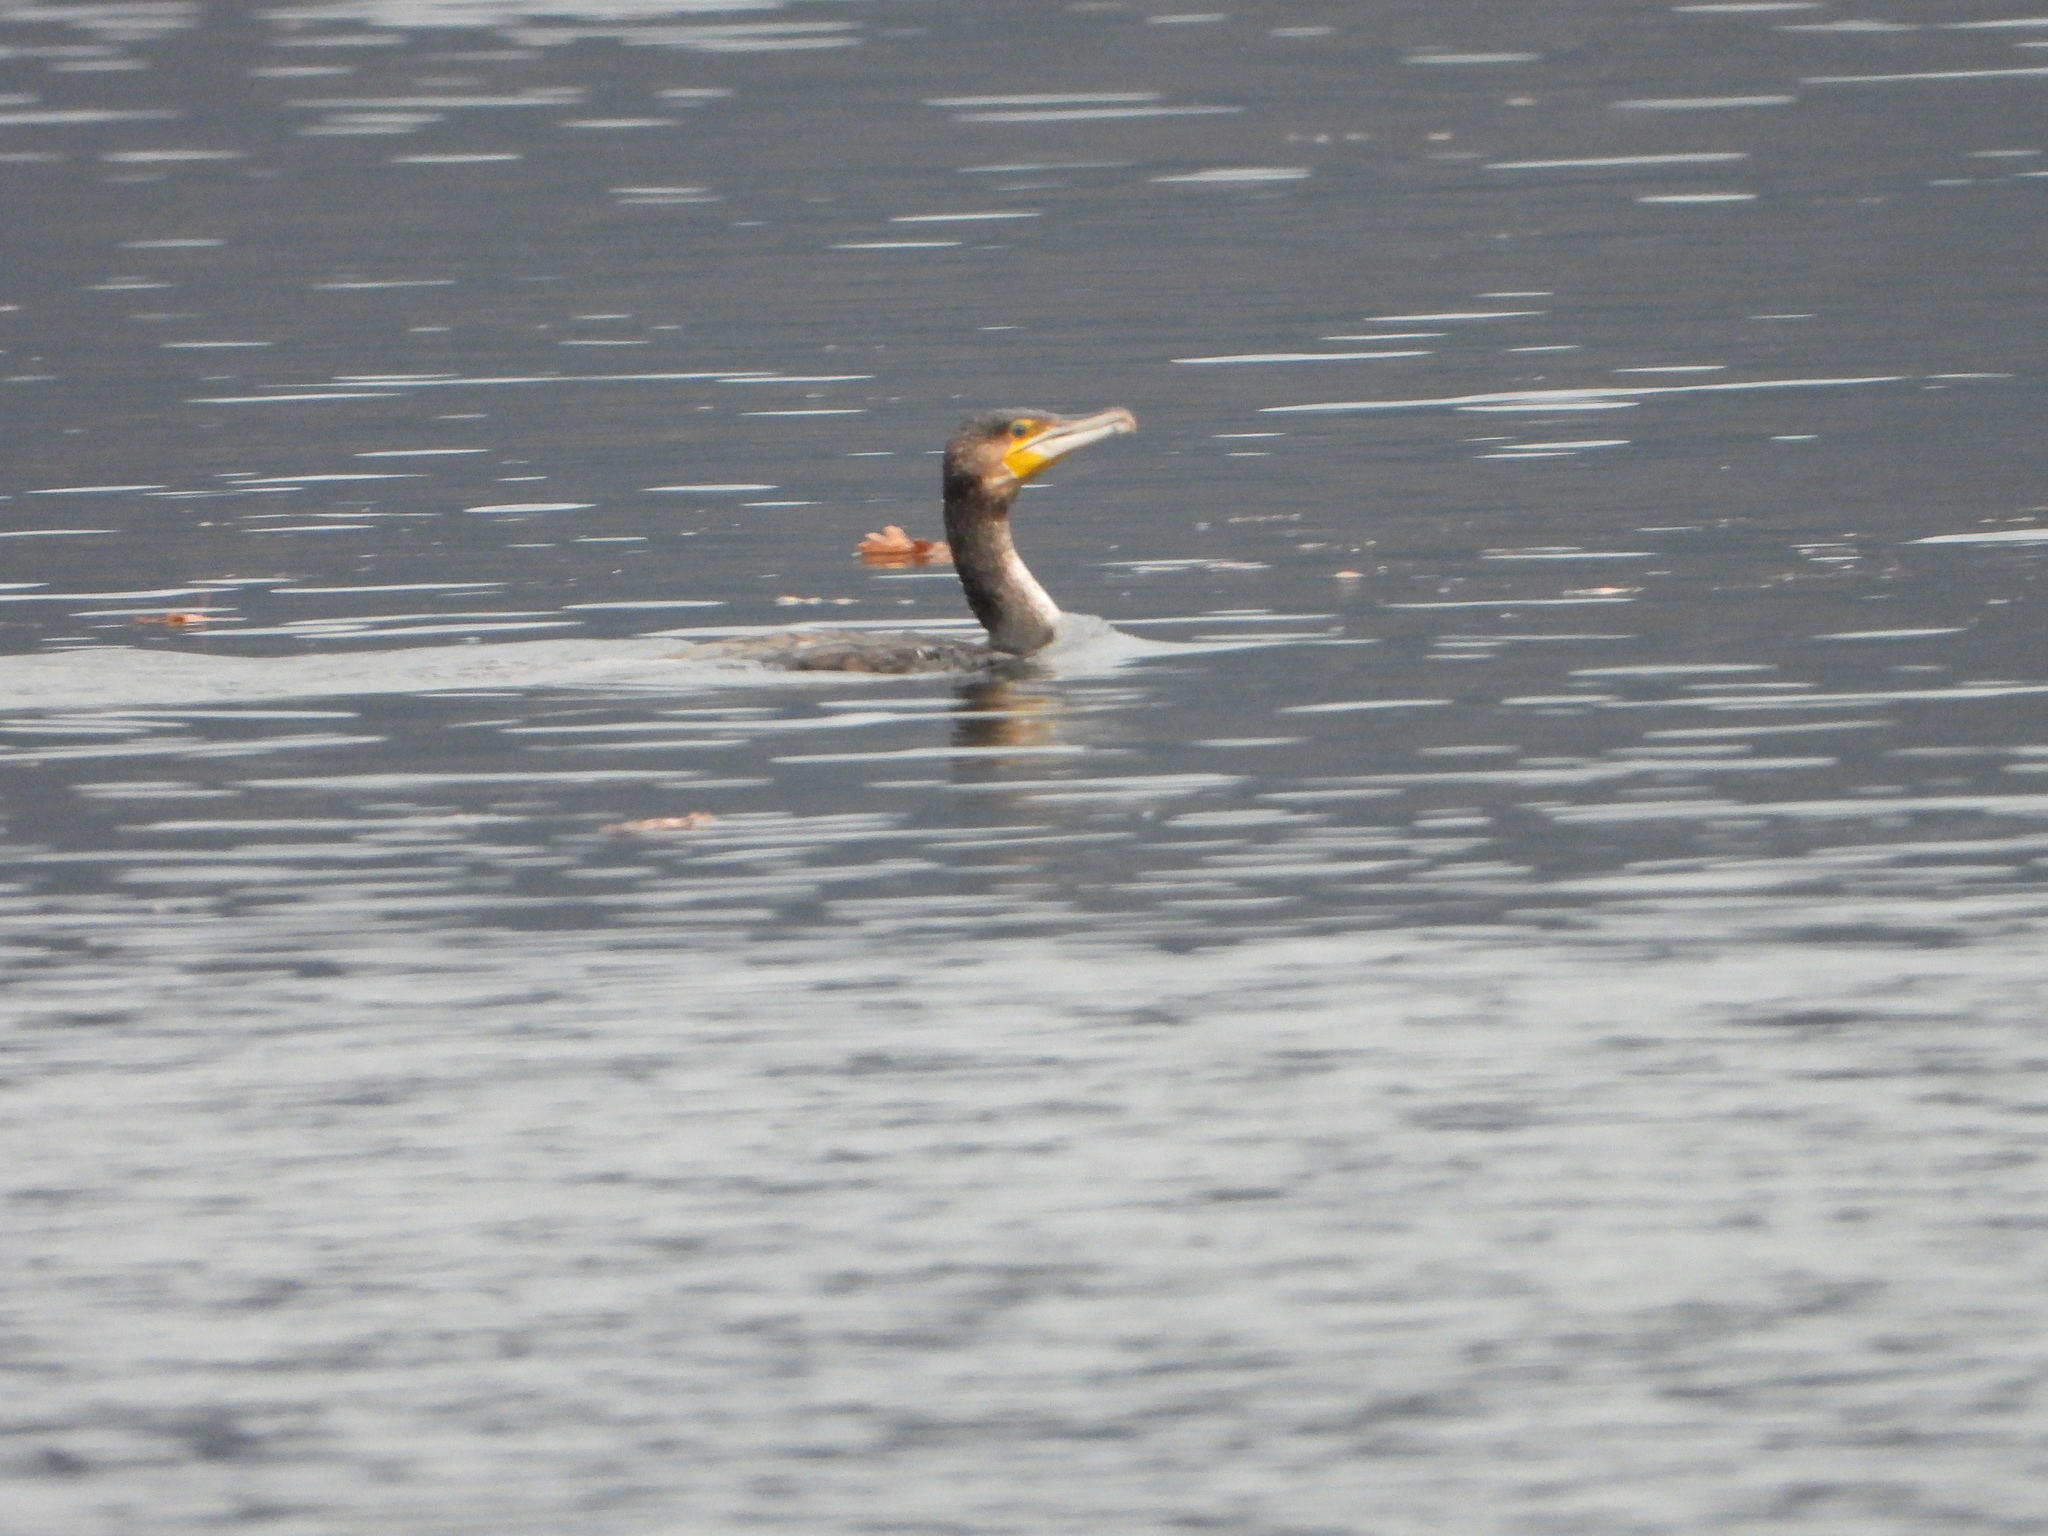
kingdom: Animalia
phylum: Chordata
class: Aves
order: Suliformes
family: Phalacrocoracidae
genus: Phalacrocorax
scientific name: Phalacrocorax carbo
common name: Great cormorant
